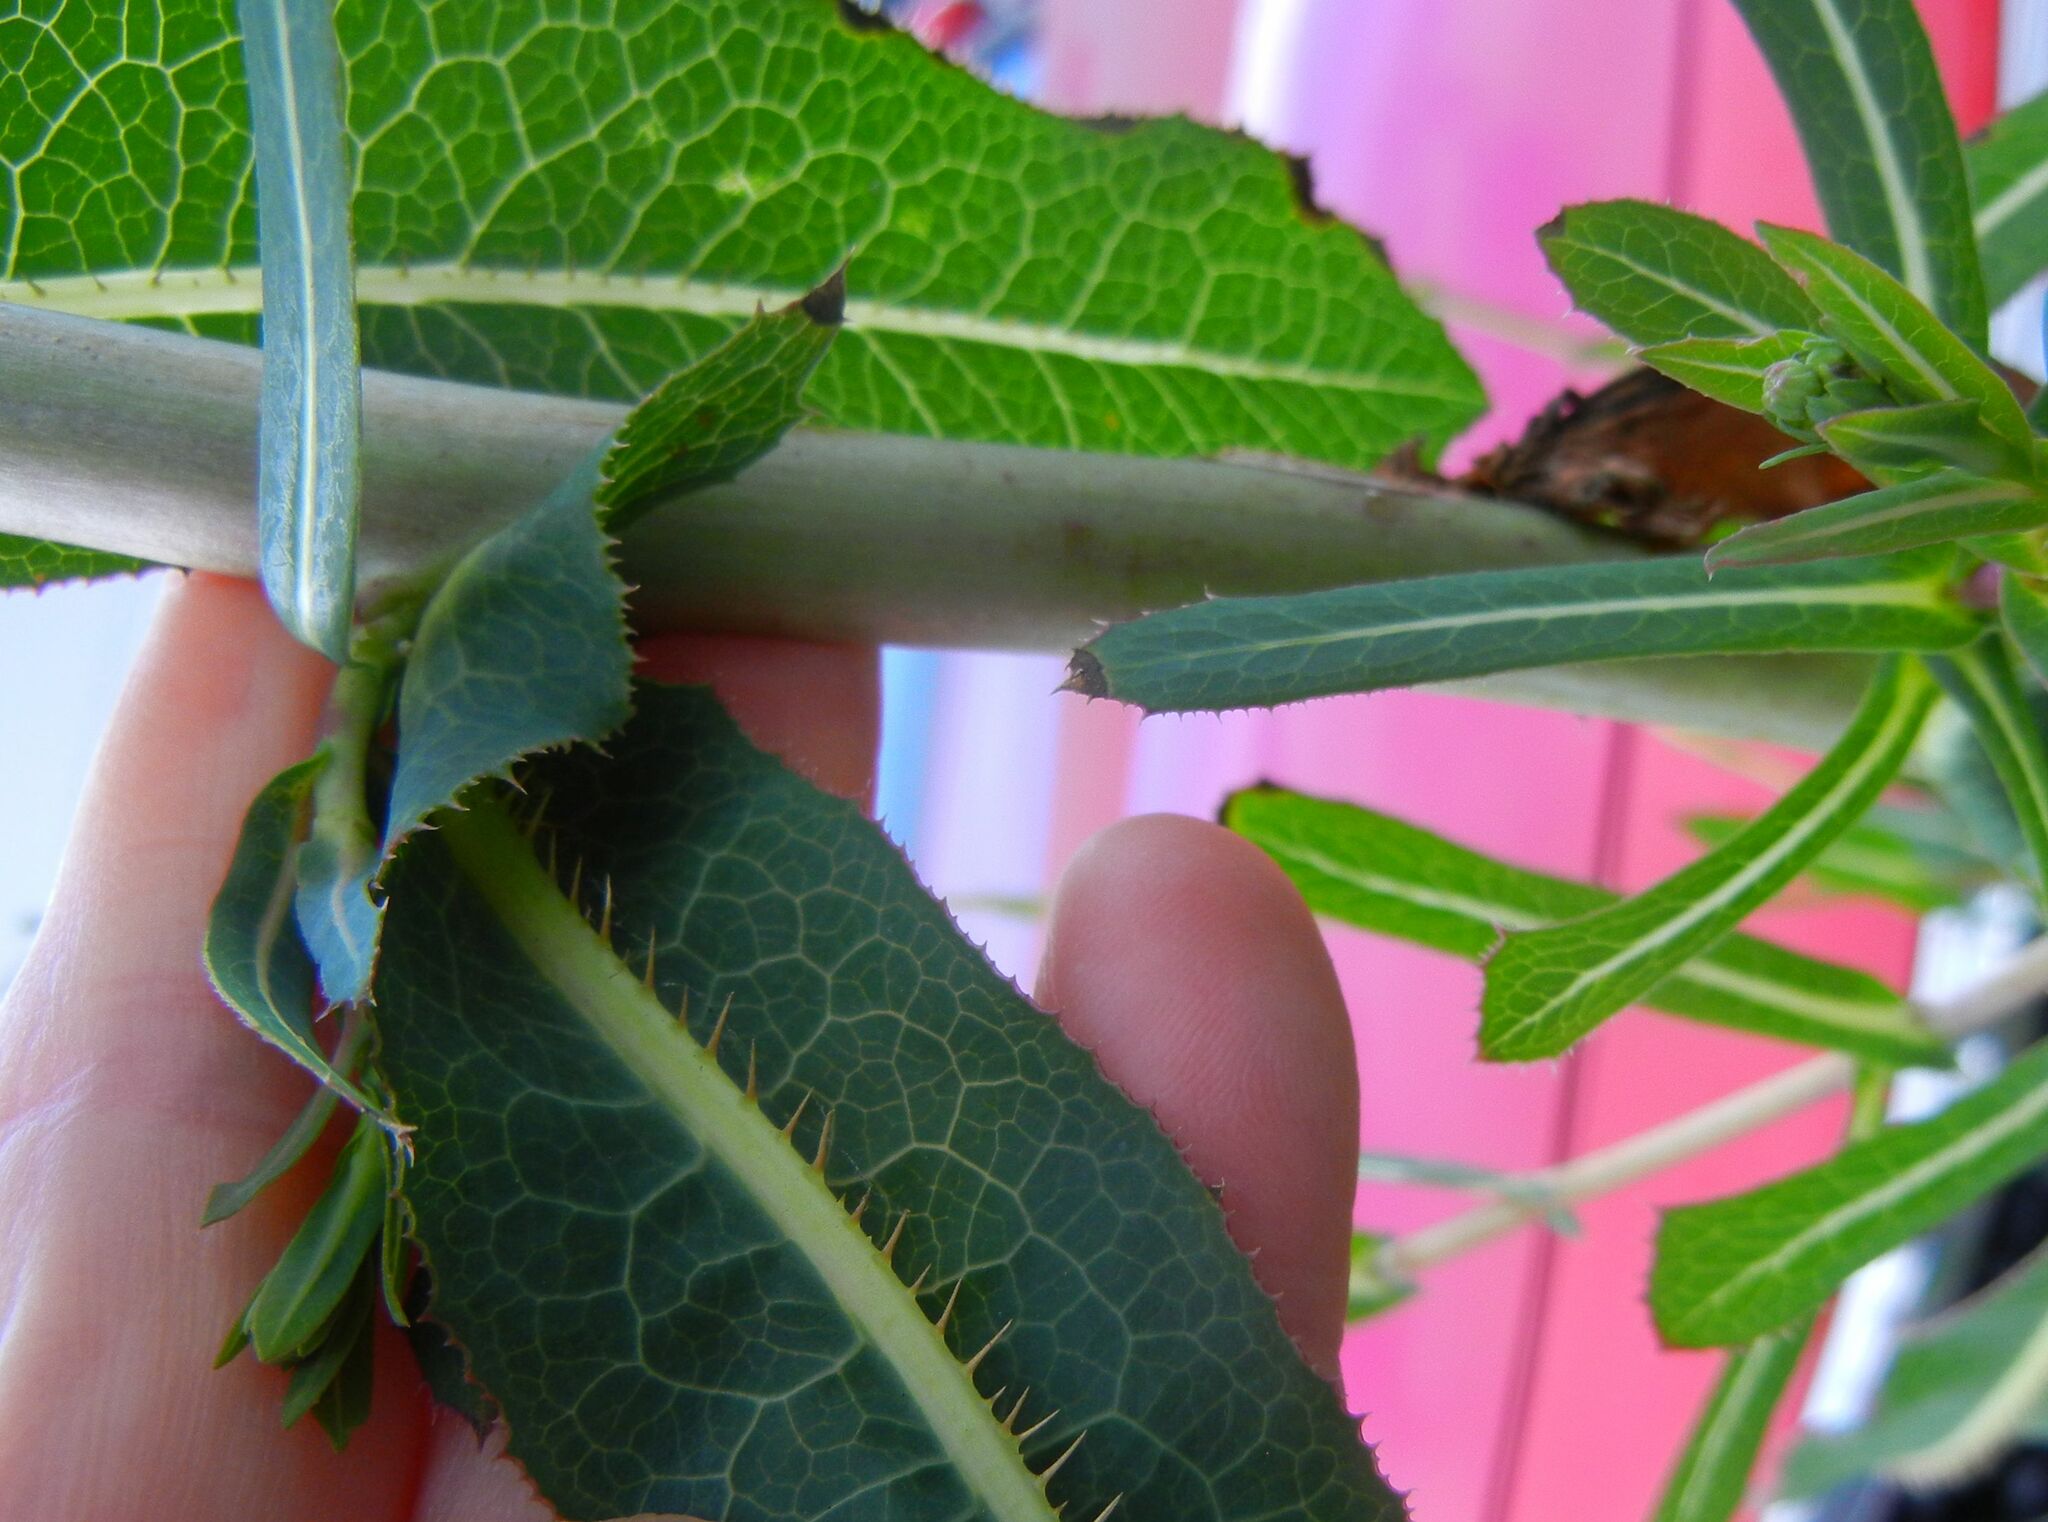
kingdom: Plantae
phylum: Tracheophyta
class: Magnoliopsida
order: Asterales
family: Asteraceae
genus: Lactuca
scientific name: Lactuca serriola
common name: Prickly lettuce
